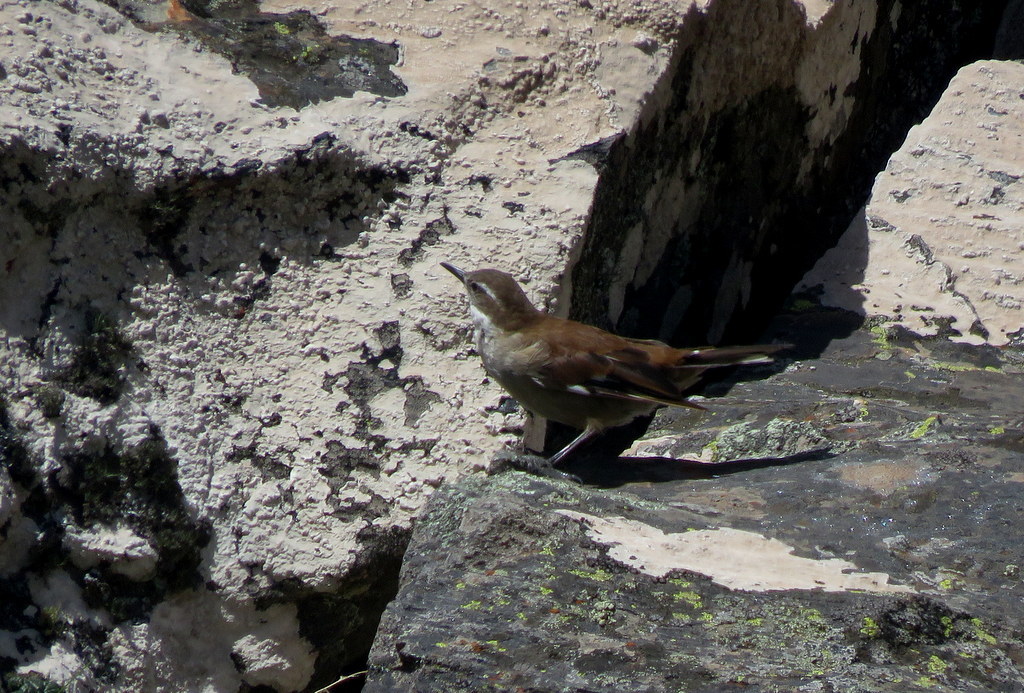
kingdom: Animalia
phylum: Chordata
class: Aves
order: Passeriformes
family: Furnariidae
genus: Cinclodes
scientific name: Cinclodes atacamensis
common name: White-winged cinclodes
